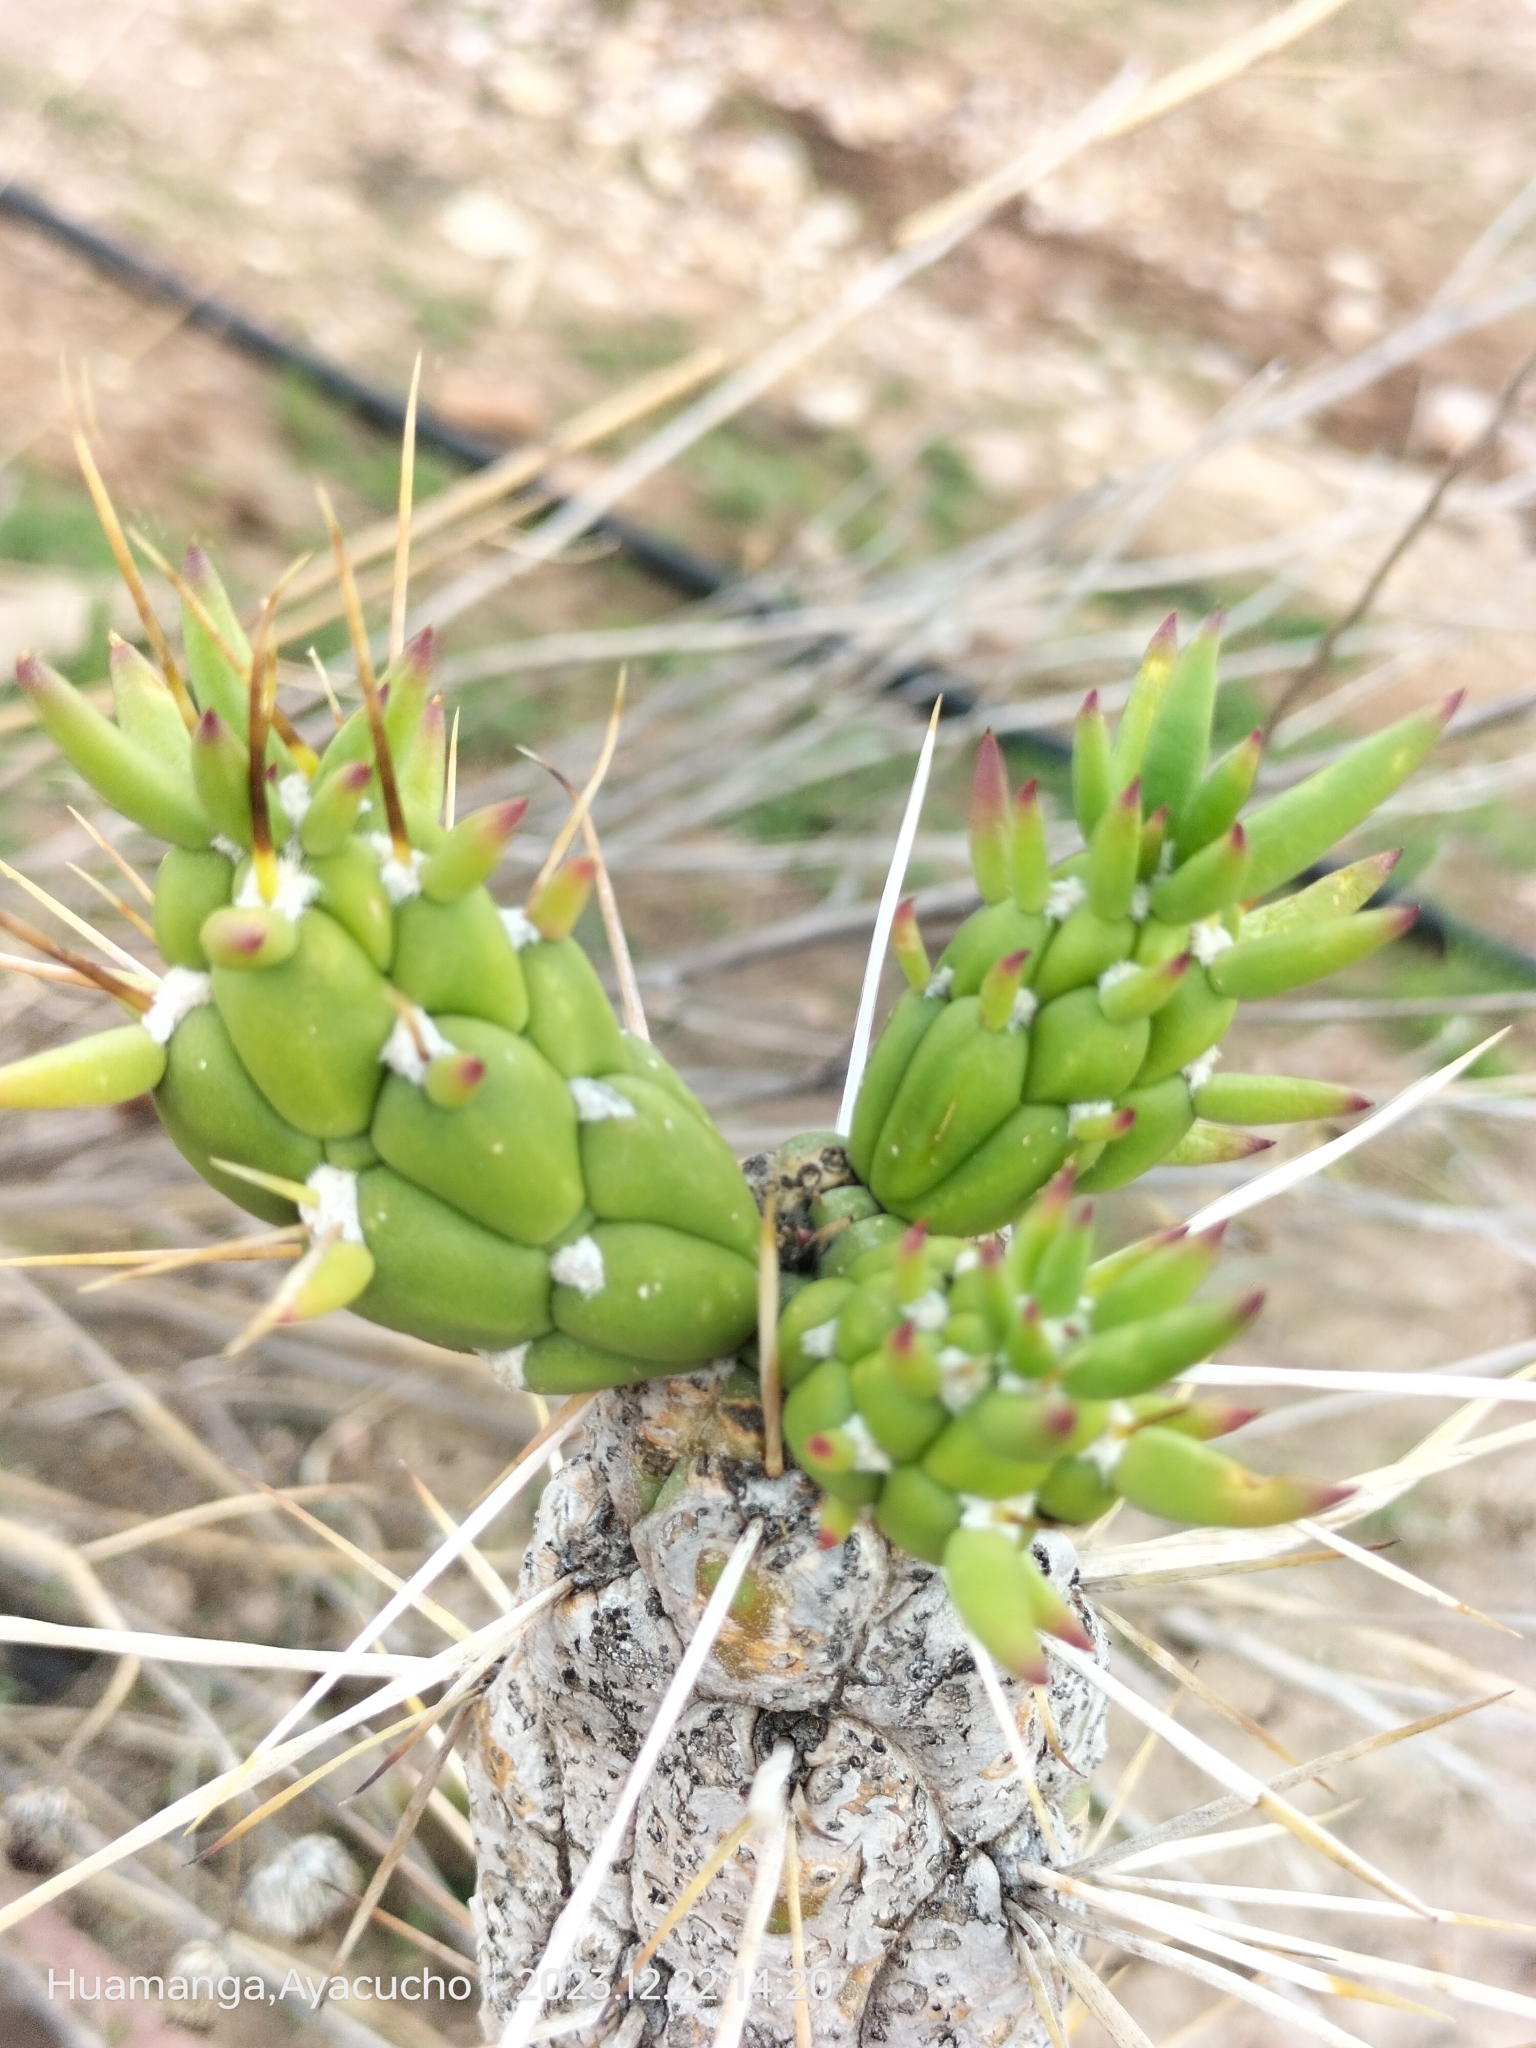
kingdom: Plantae
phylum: Tracheophyta
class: Magnoliopsida
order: Caryophyllales
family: Cactaceae
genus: Austrocylindropuntia
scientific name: Austrocylindropuntia subulata
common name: Eve's needle cactus
